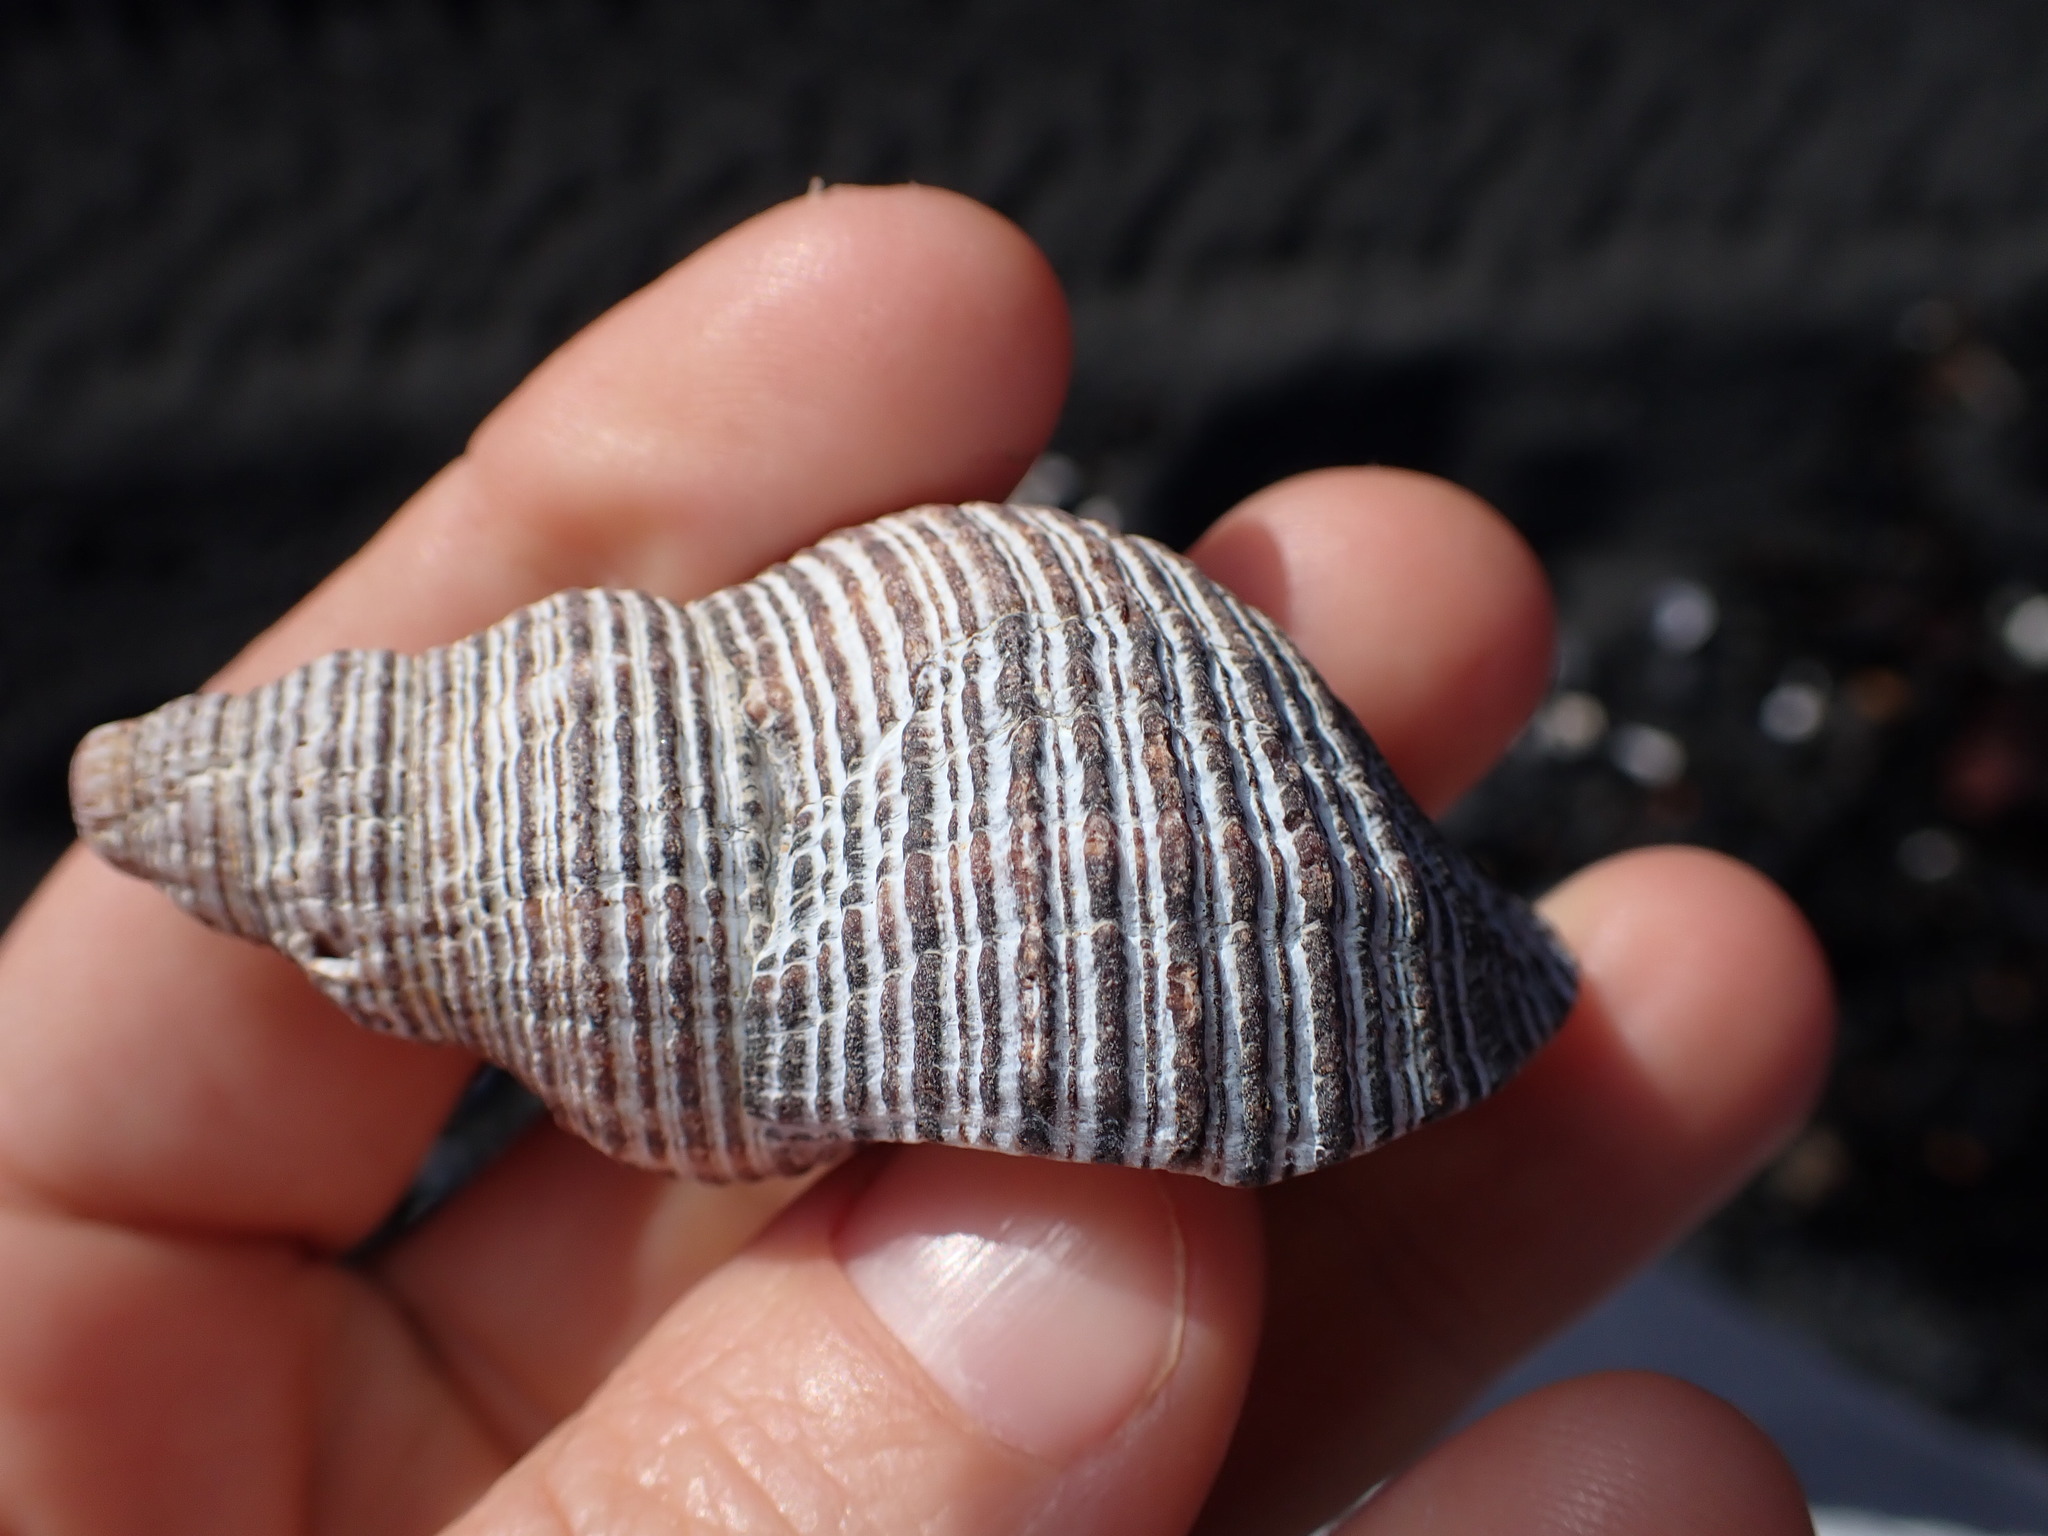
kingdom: Animalia
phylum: Mollusca
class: Gastropoda
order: Neogastropoda
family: Austrosiphonidae
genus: Penion
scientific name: Penion sulcatus
